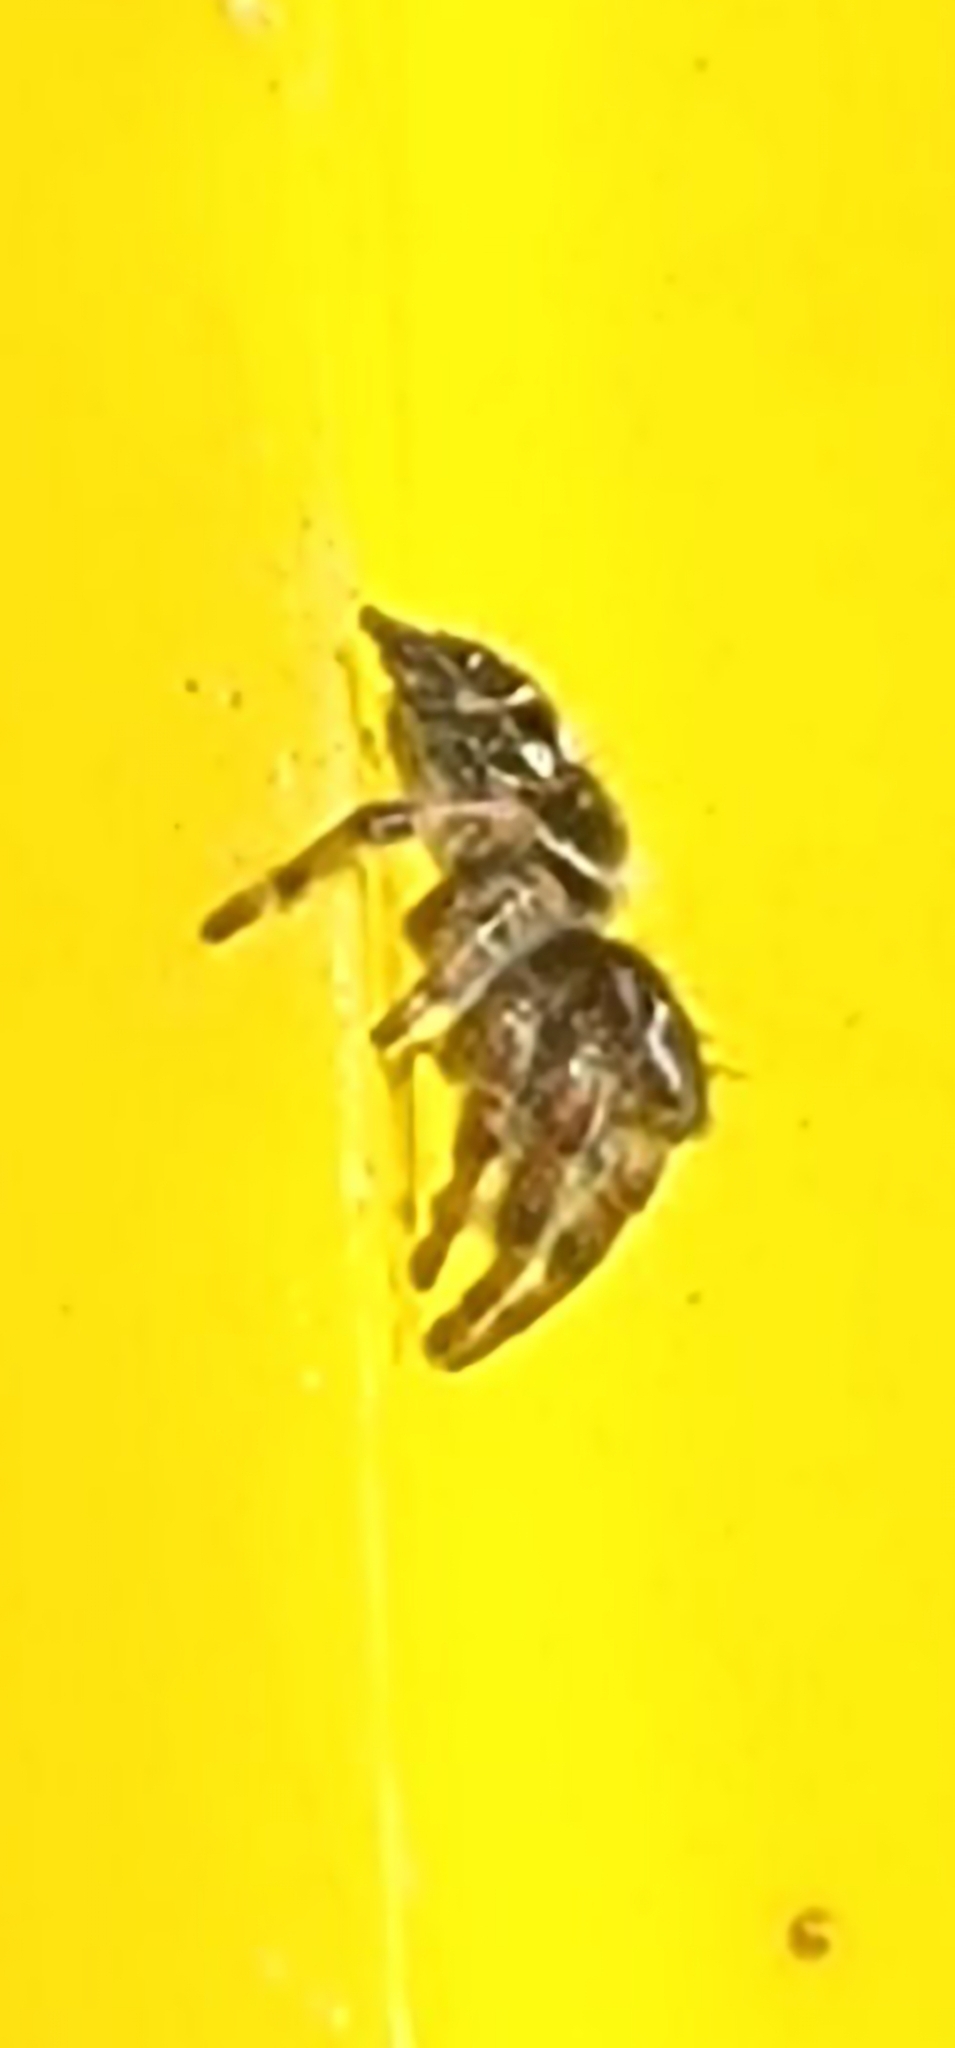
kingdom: Animalia
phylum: Arthropoda
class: Arachnida
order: Araneae
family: Salticidae
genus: Phidippus
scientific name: Phidippus audax
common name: Bold jumper
